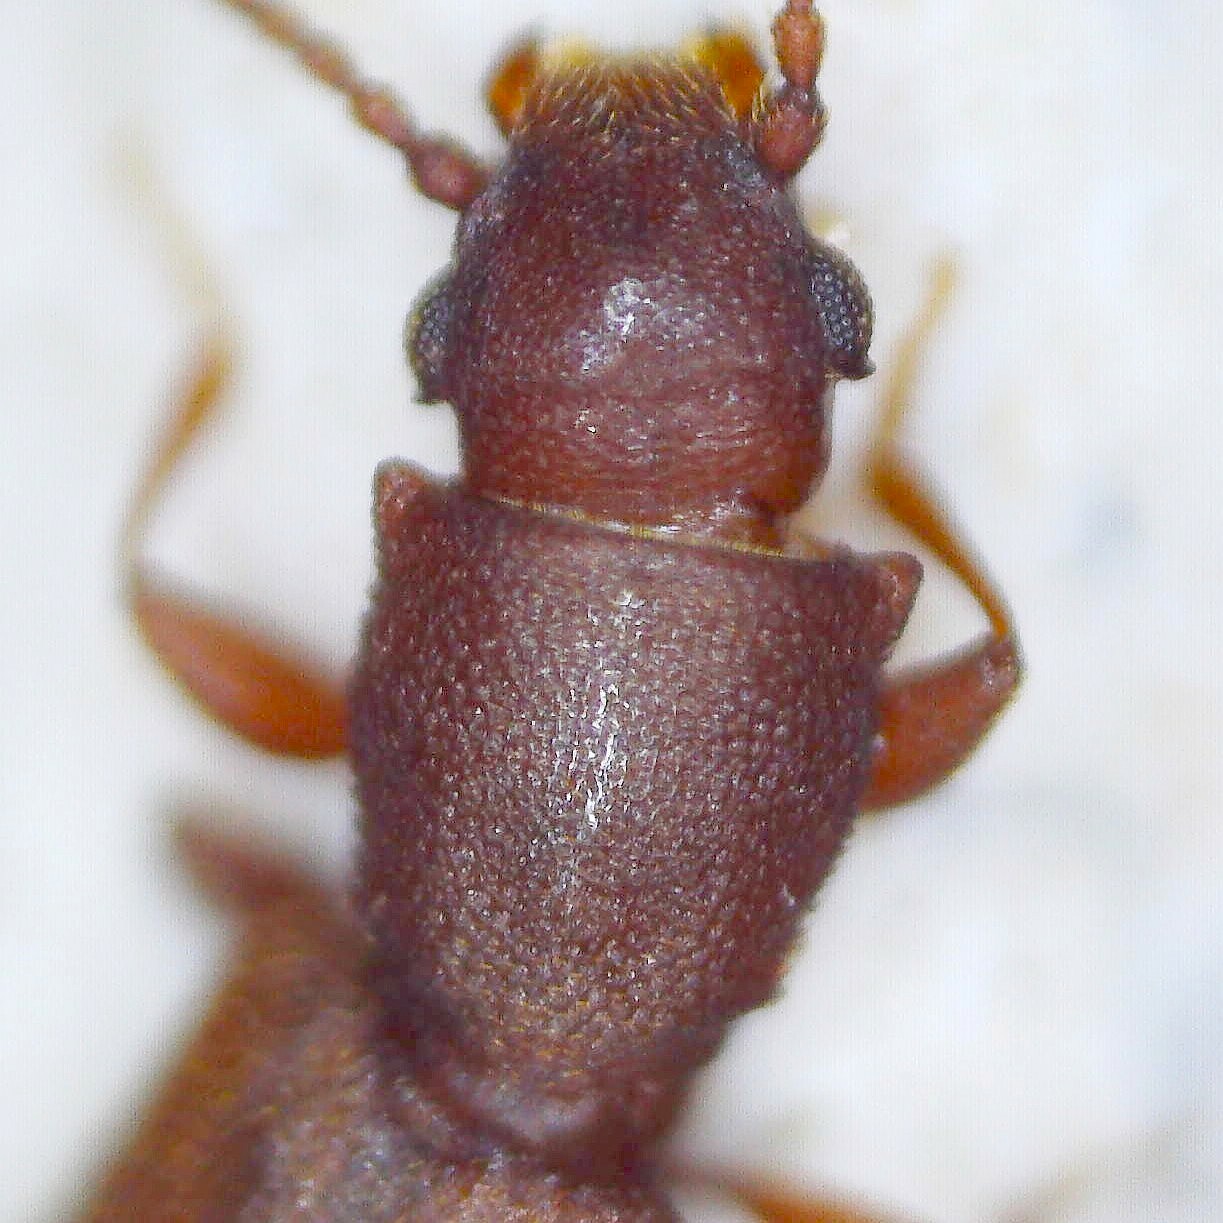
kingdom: Animalia
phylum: Arthropoda
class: Insecta
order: Coleoptera
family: Silvanidae
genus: Silvanus
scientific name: Silvanus unidentatus
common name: One-toothed silvan flat bark beetle
